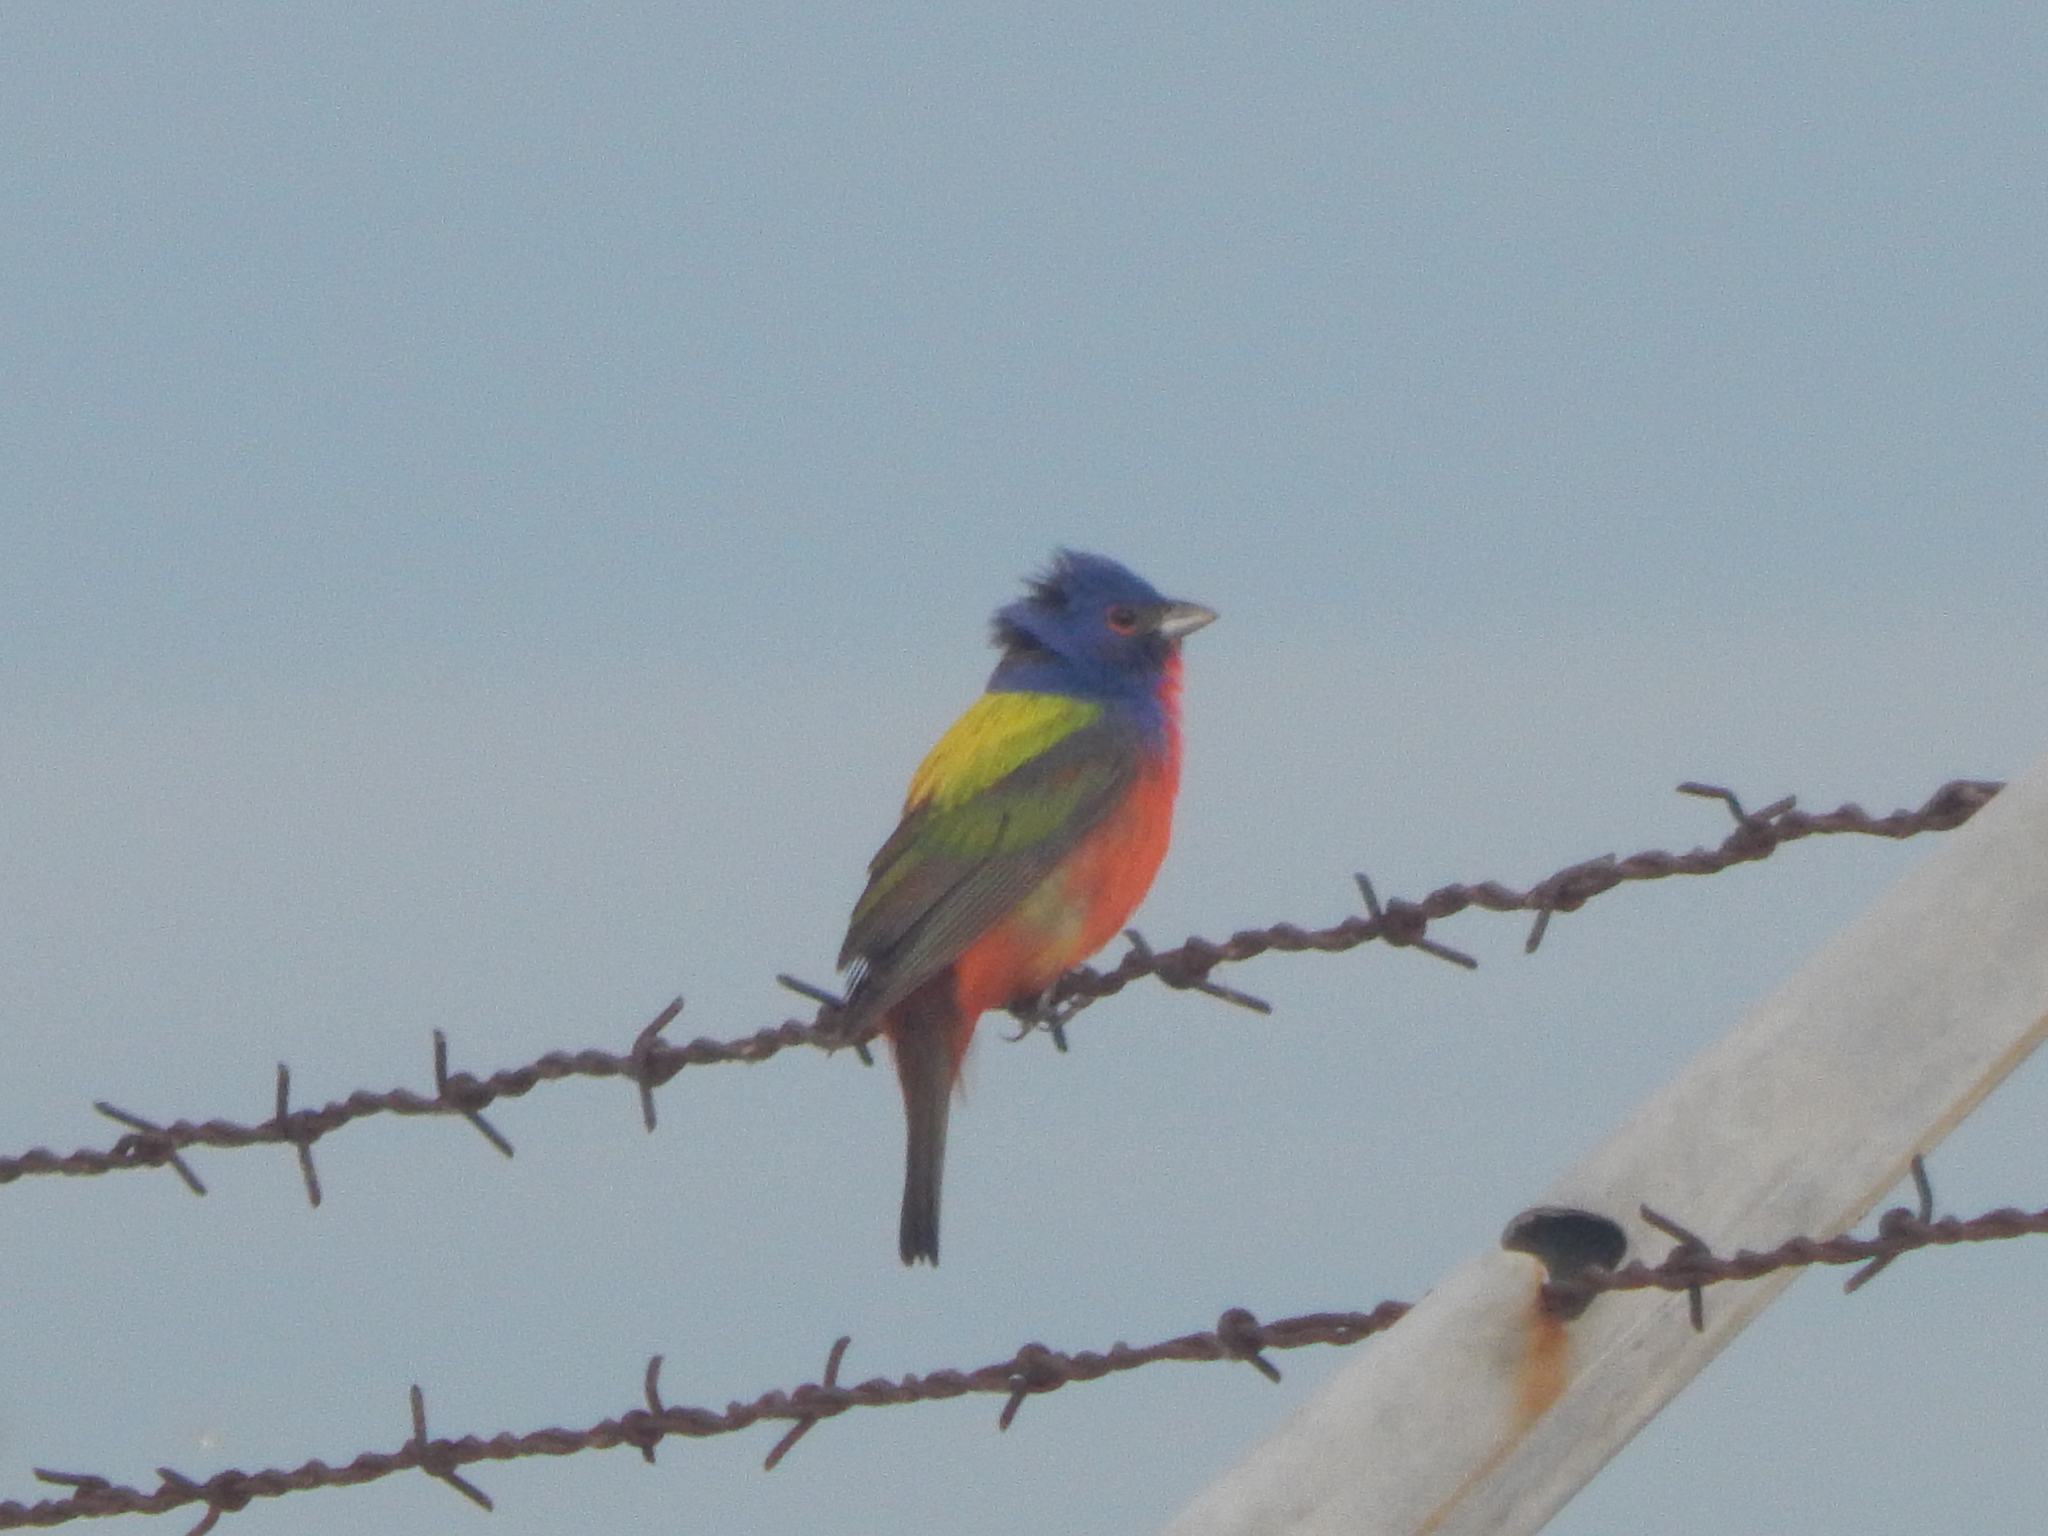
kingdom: Animalia
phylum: Chordata
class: Aves
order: Passeriformes
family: Cardinalidae
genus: Passerina
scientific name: Passerina ciris
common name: Painted bunting
